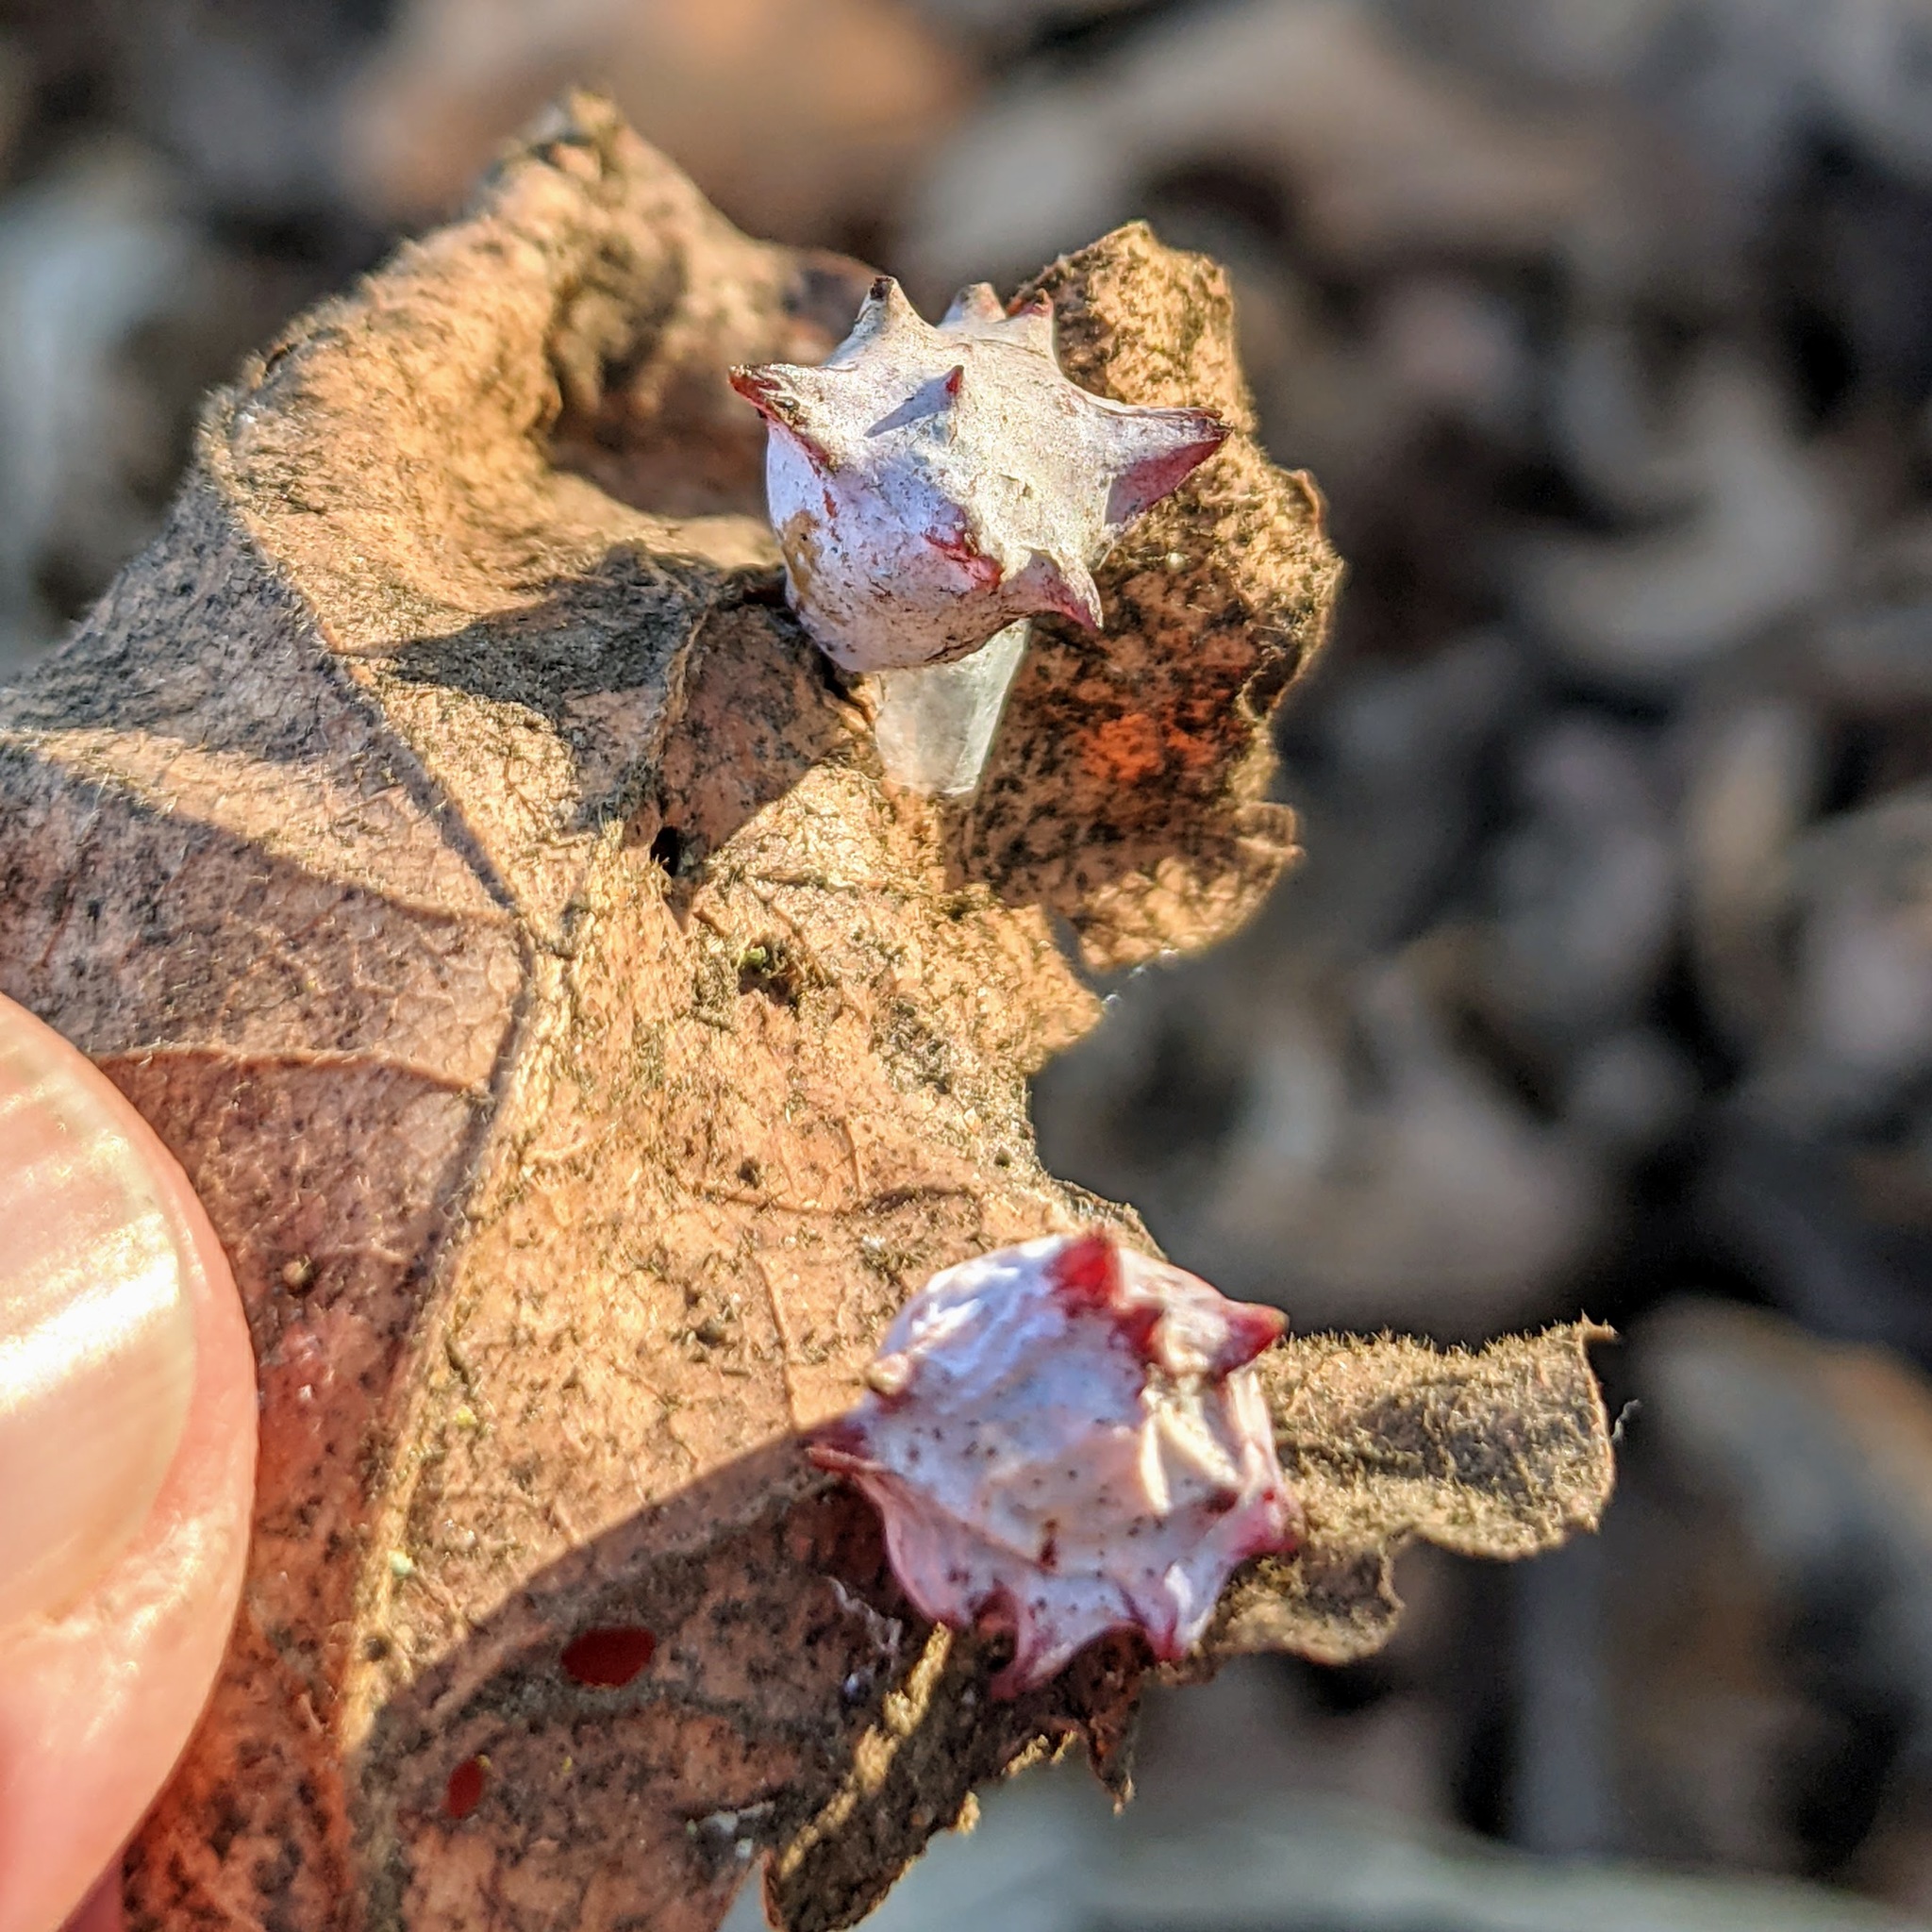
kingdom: Animalia
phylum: Arthropoda
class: Insecta
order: Hymenoptera
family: Cynipidae
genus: Cynips
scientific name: Cynips douglasi
